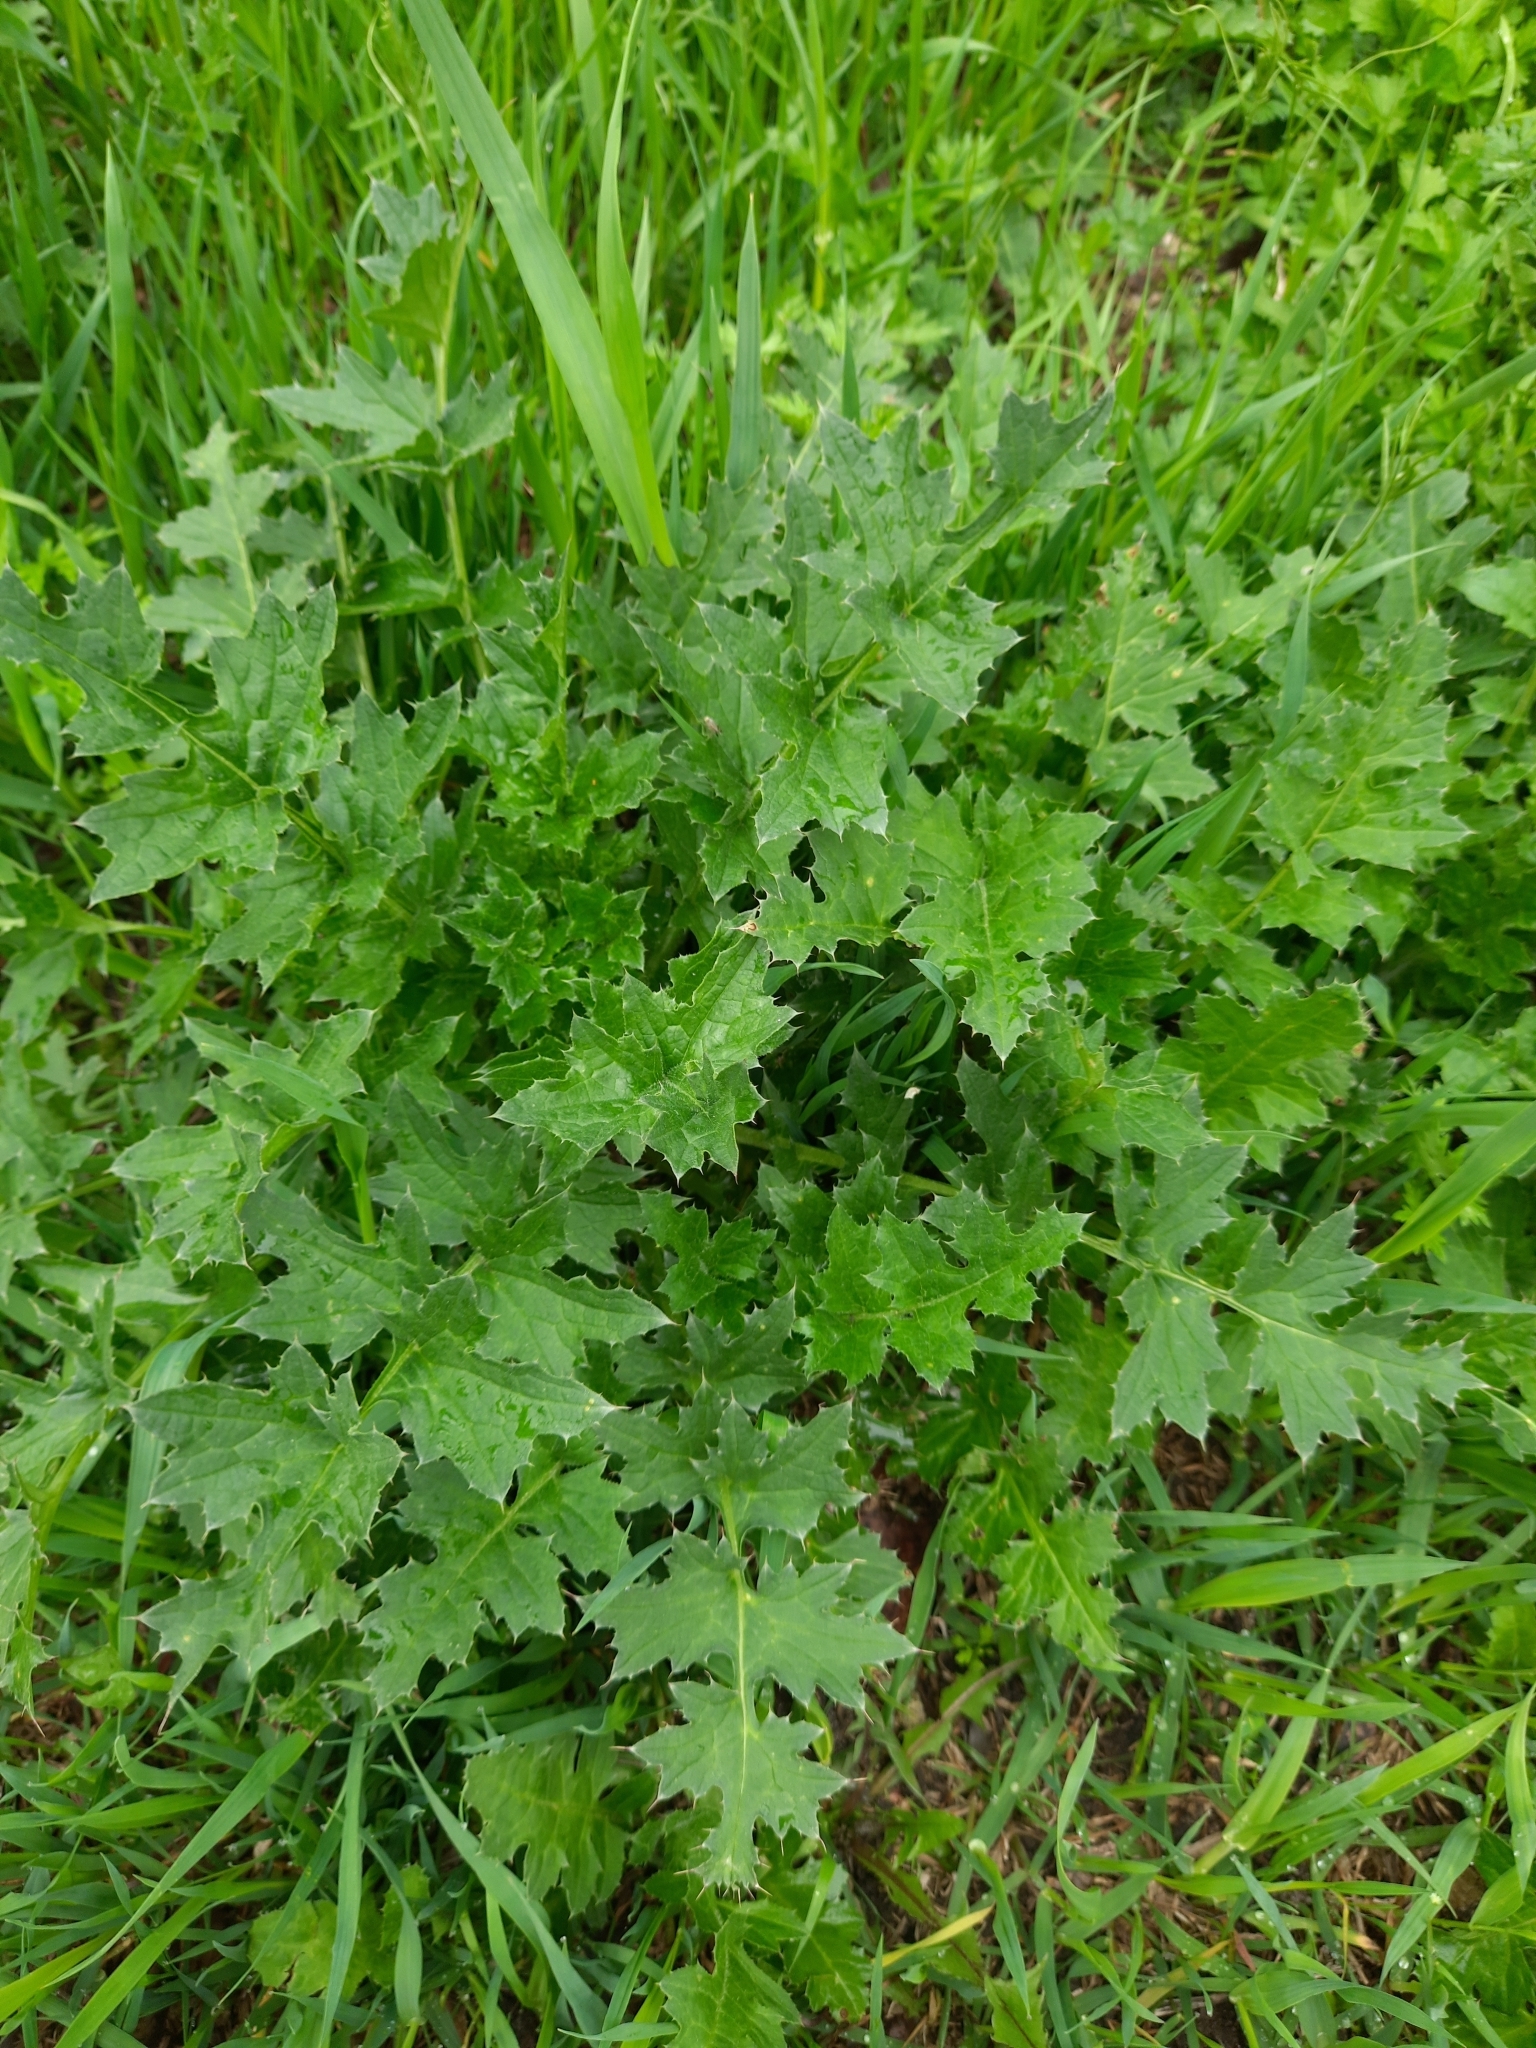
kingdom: Plantae
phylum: Tracheophyta
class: Magnoliopsida
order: Asterales
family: Asteraceae
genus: Carduus
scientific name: Carduus crispus
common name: Welted thistle
